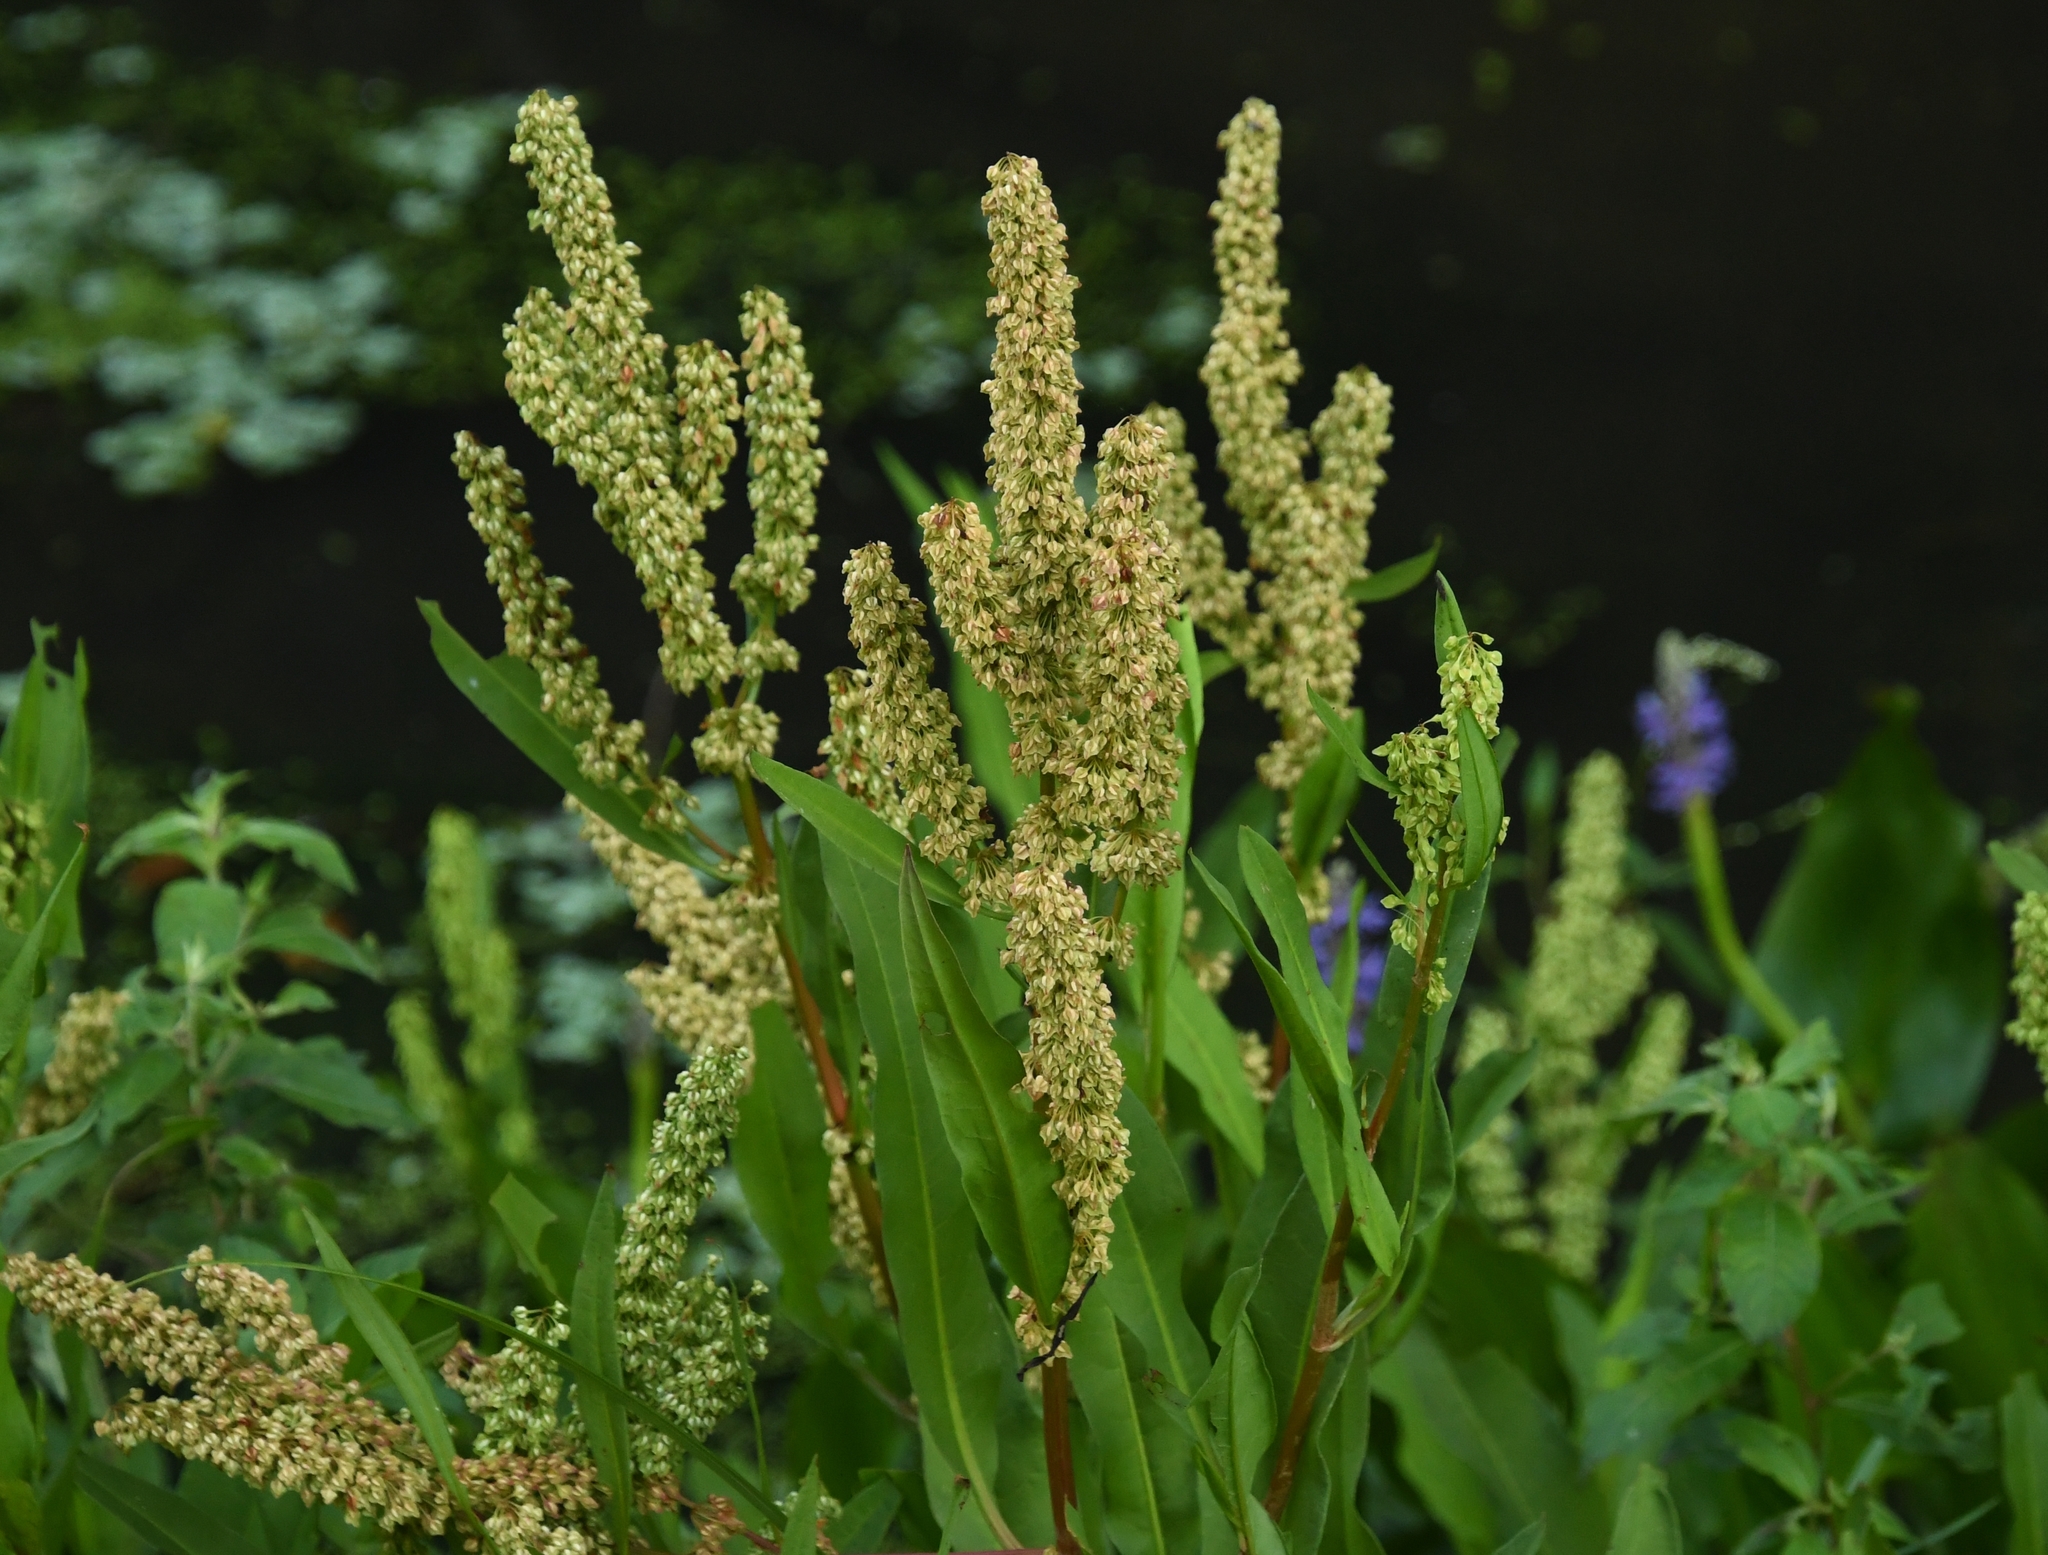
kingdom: Plantae
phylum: Tracheophyta
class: Magnoliopsida
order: Caryophyllales
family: Polygonaceae
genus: Rumex
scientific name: Rumex verticillatus
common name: Swamp dock
